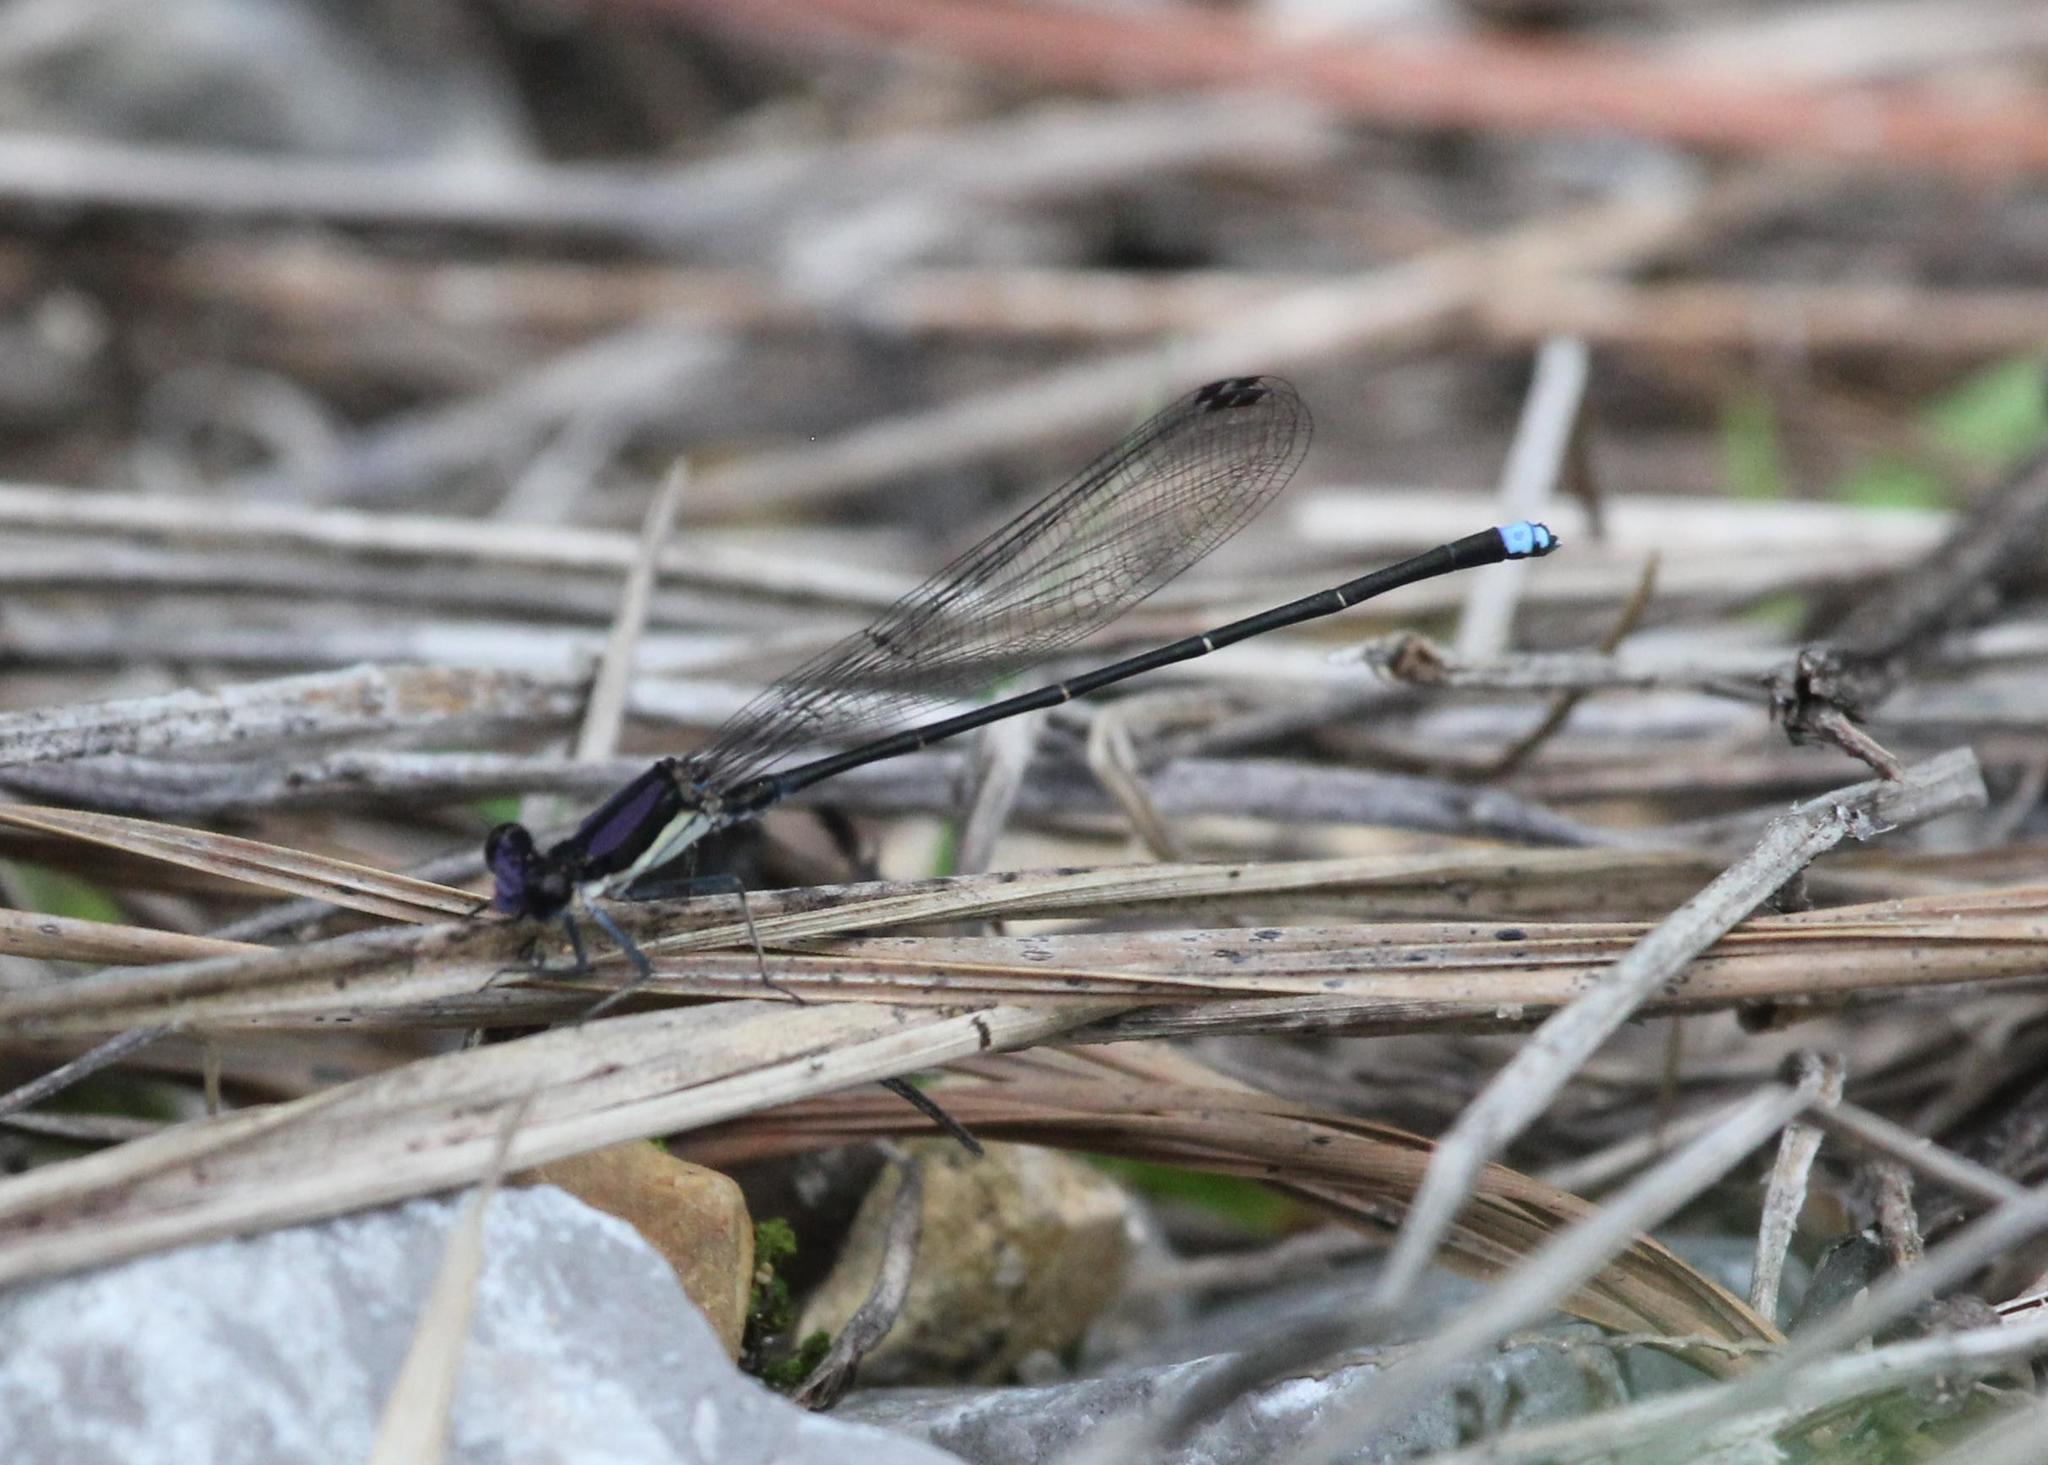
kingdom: Animalia
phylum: Arthropoda
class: Insecta
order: Odonata
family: Coenagrionidae
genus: Argia
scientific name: Argia tibialis
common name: Blue-tipped dancer
